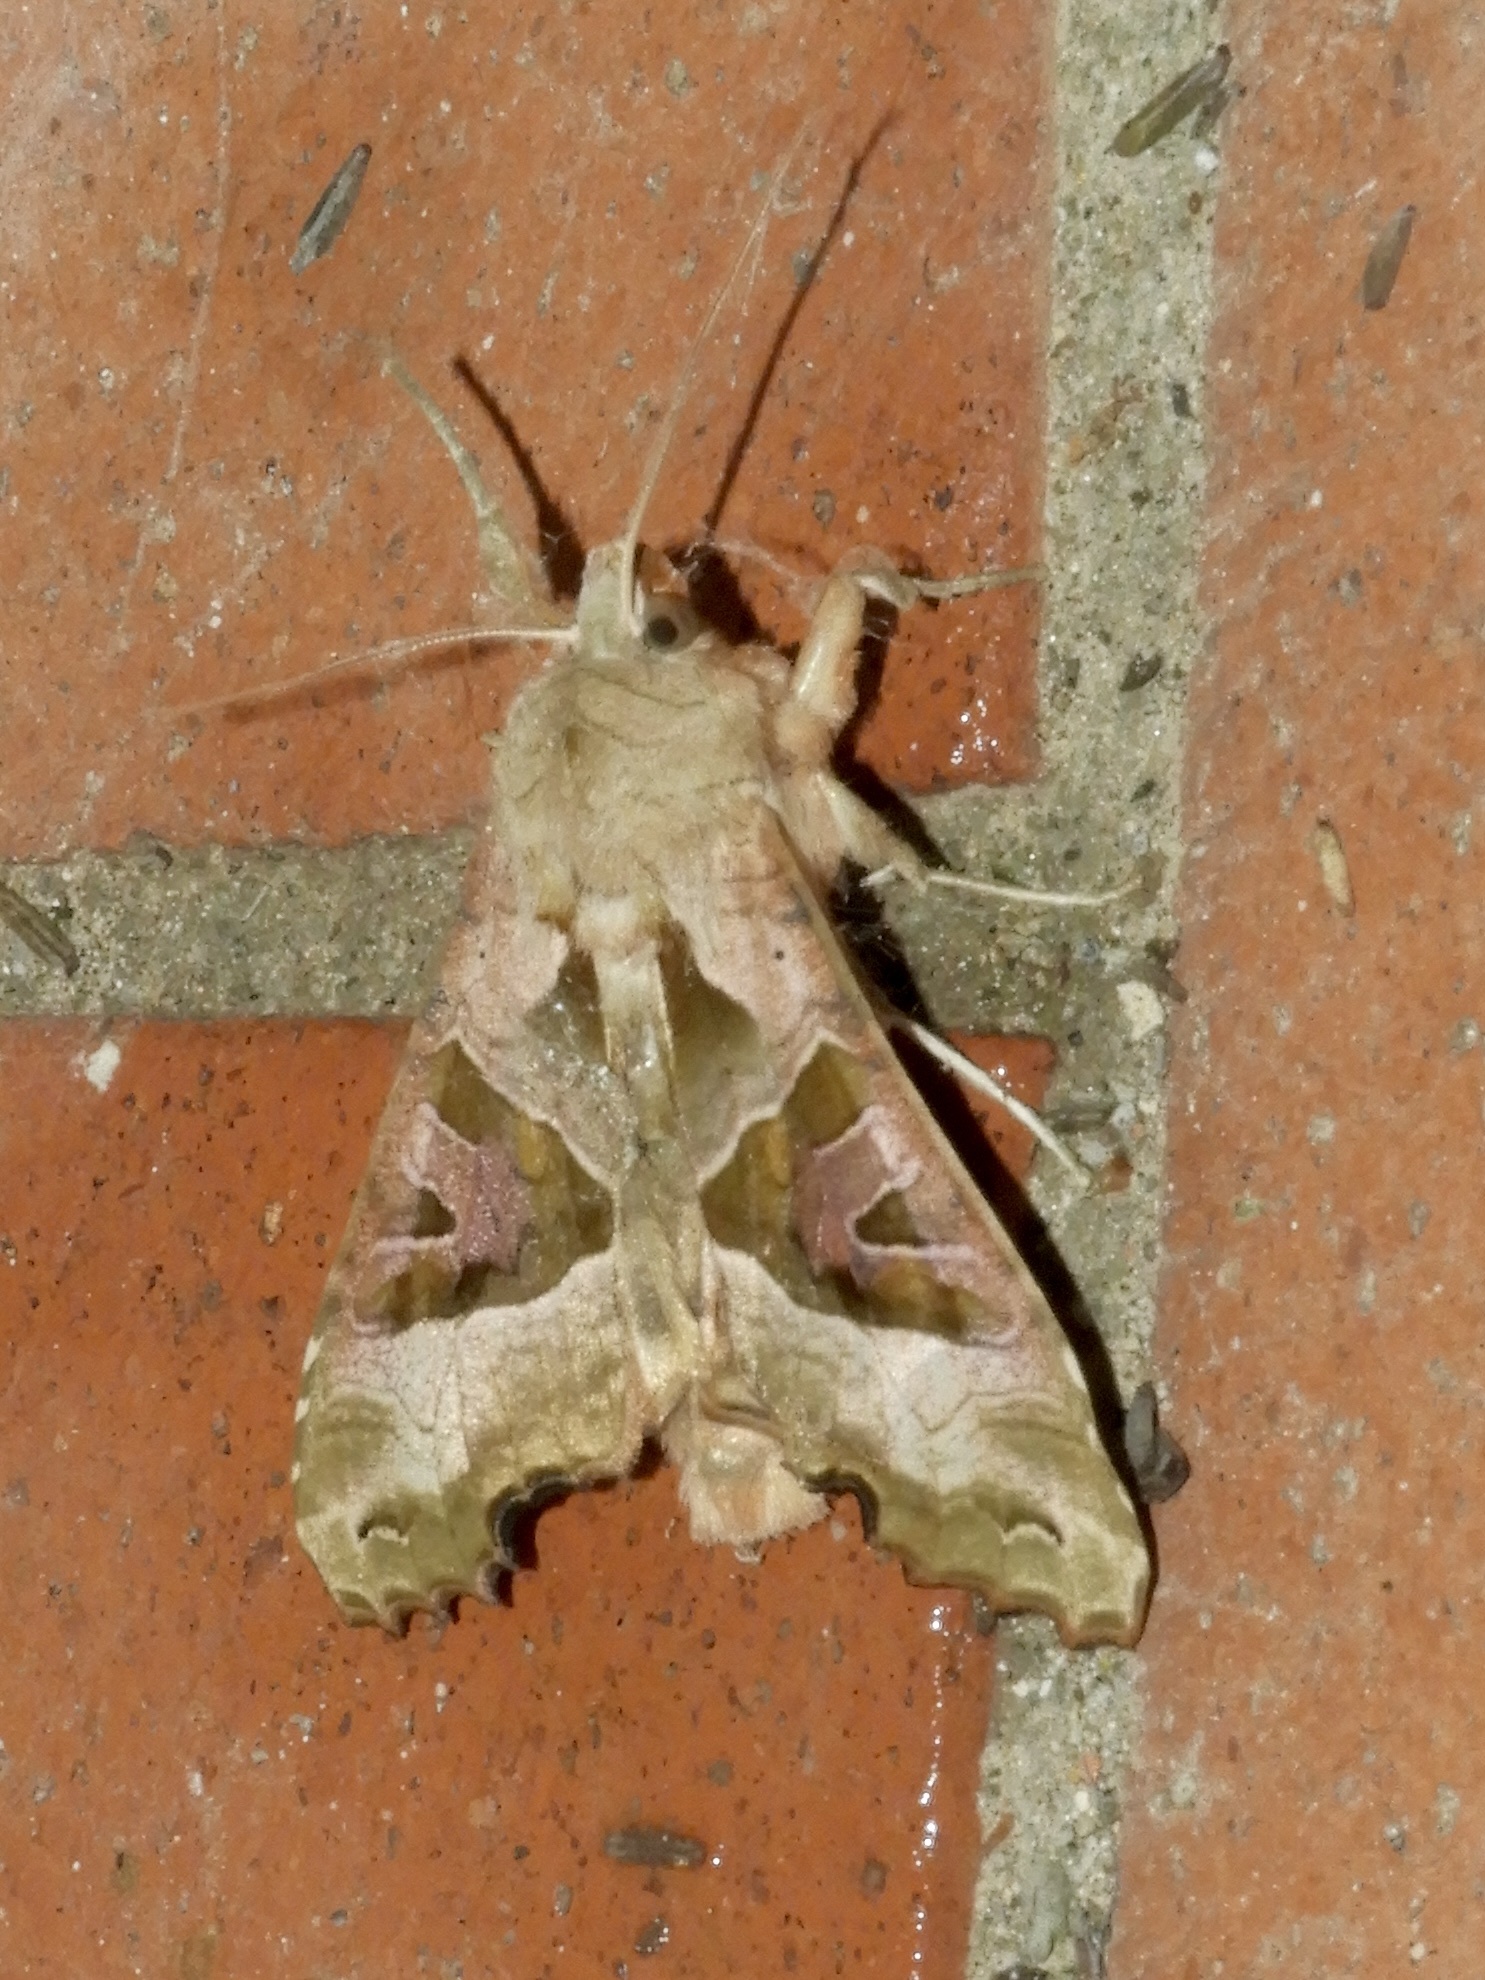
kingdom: Animalia
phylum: Arthropoda
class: Insecta
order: Lepidoptera
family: Noctuidae
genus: Phlogophora
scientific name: Phlogophora meticulosa
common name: Angle shades
